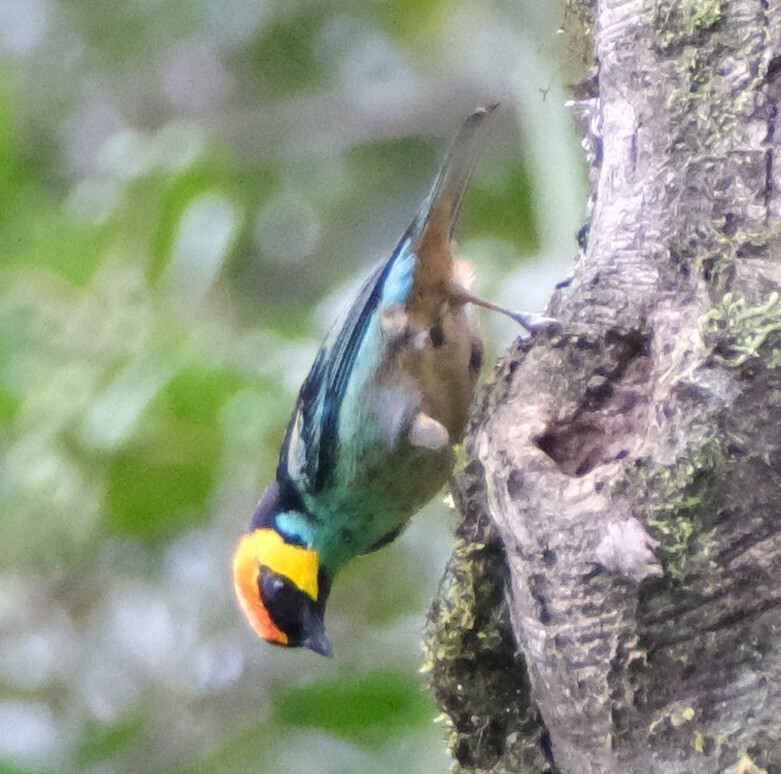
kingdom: Animalia
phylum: Chordata
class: Aves
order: Passeriformes
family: Thraupidae
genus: Tangara
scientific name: Tangara xanthocephala
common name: Saffron-crowned tanager
